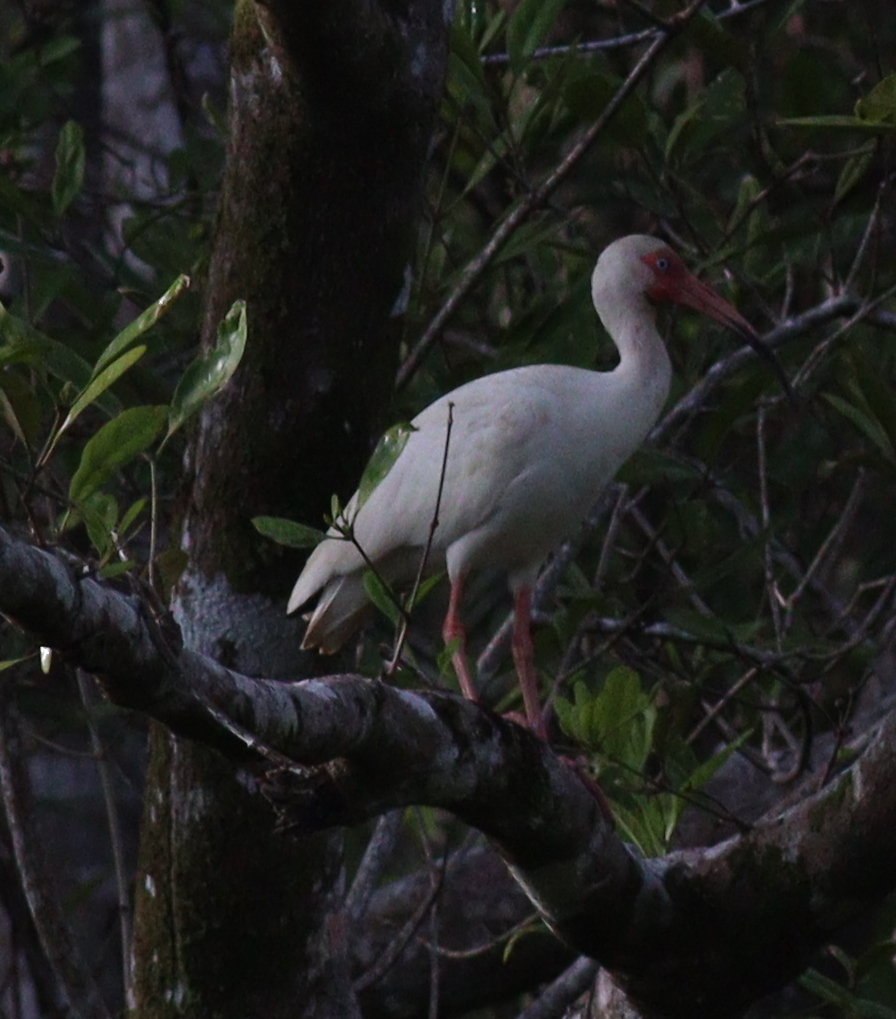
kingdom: Animalia
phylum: Chordata
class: Aves
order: Pelecaniformes
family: Threskiornithidae
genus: Eudocimus
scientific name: Eudocimus albus
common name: White ibis
